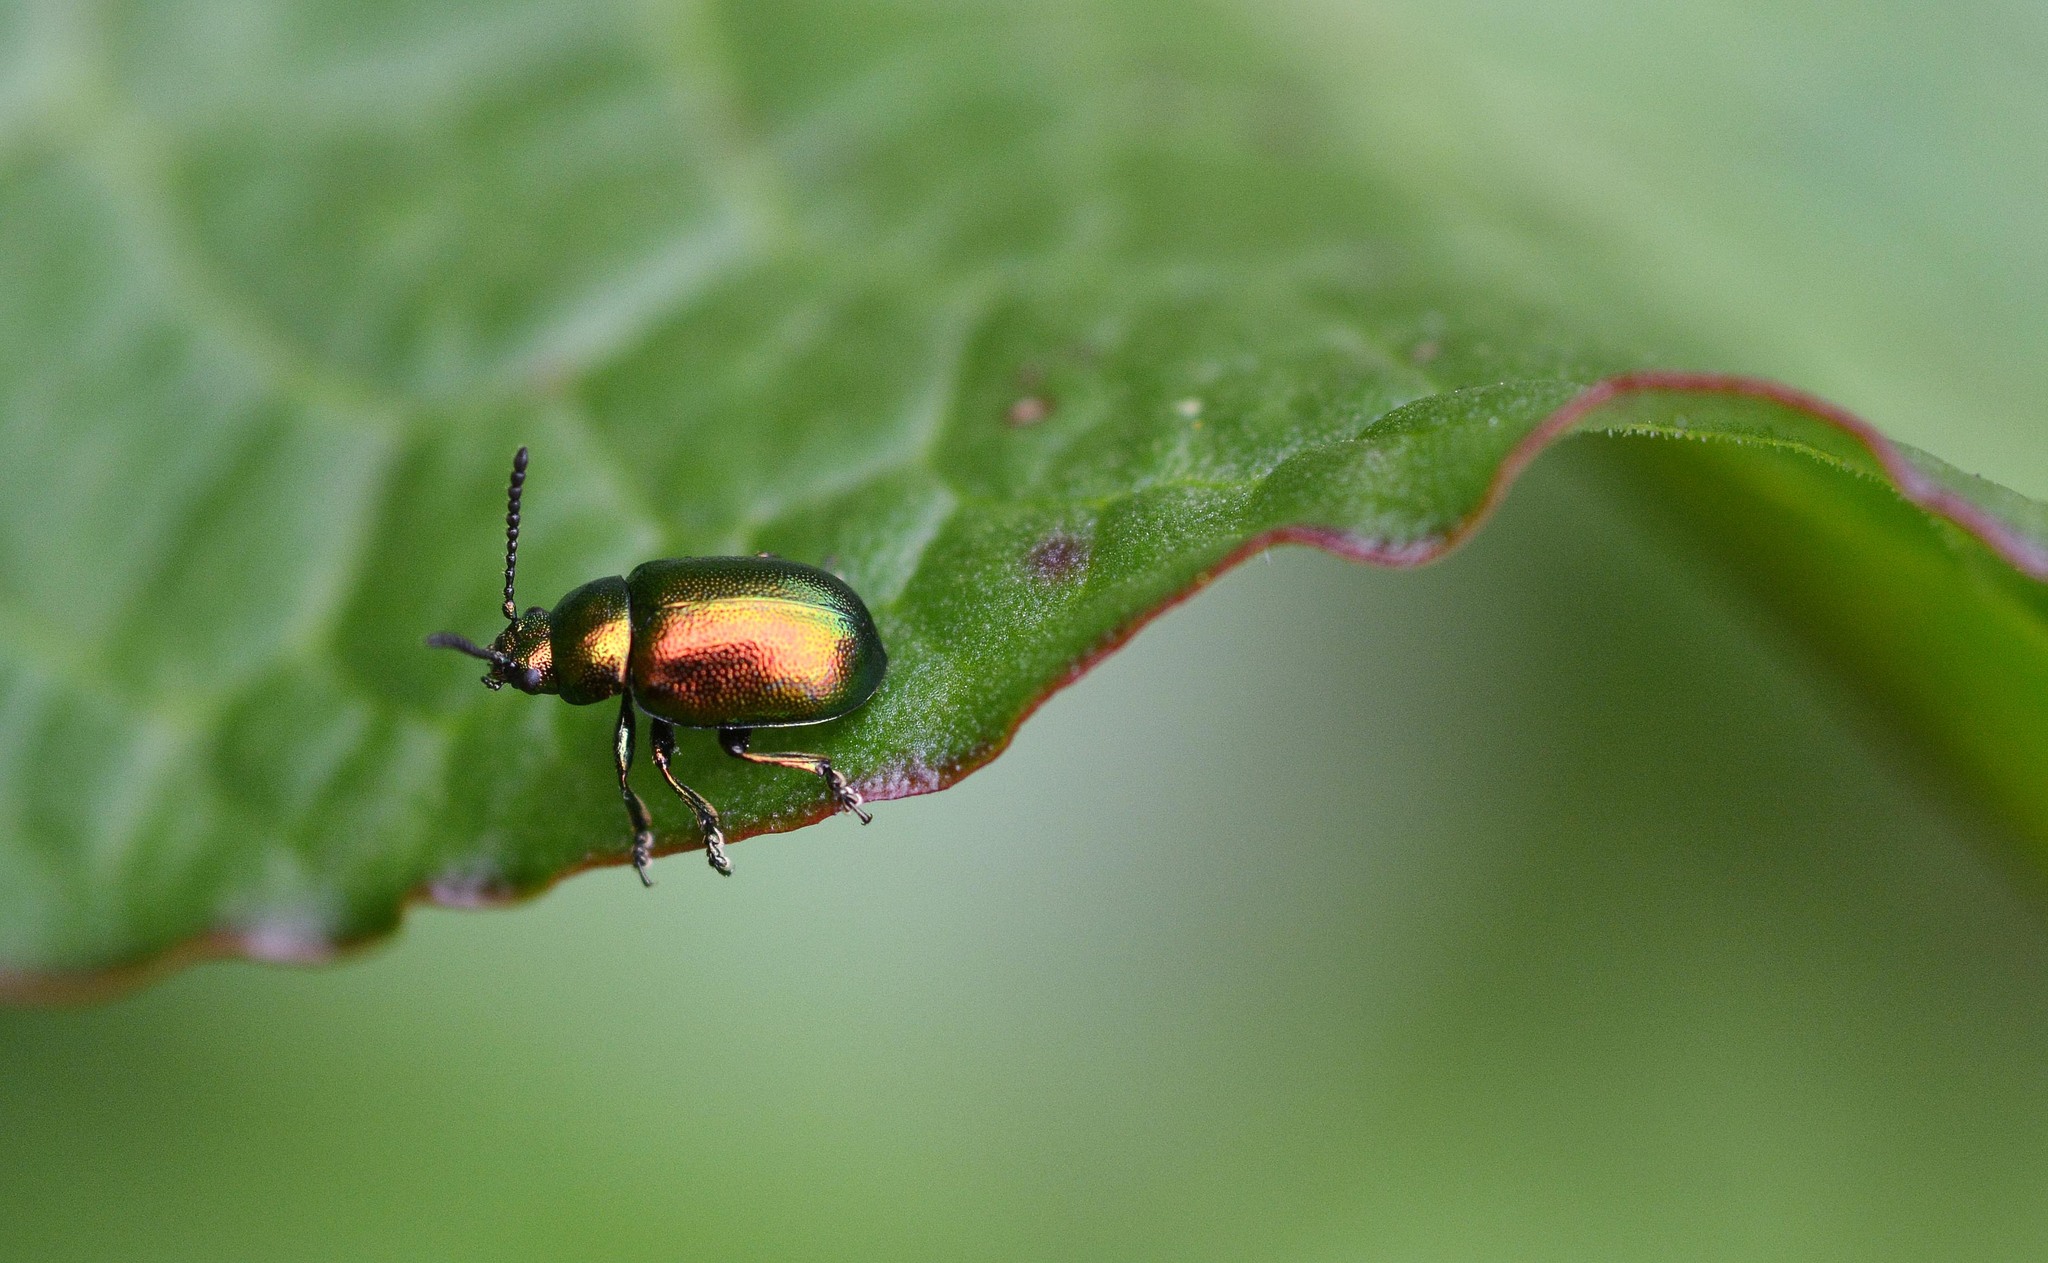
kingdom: Animalia
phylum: Arthropoda
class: Insecta
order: Coleoptera
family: Chrysomelidae
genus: Gastrophysa
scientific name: Gastrophysa viridula
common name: Green dock beetle
